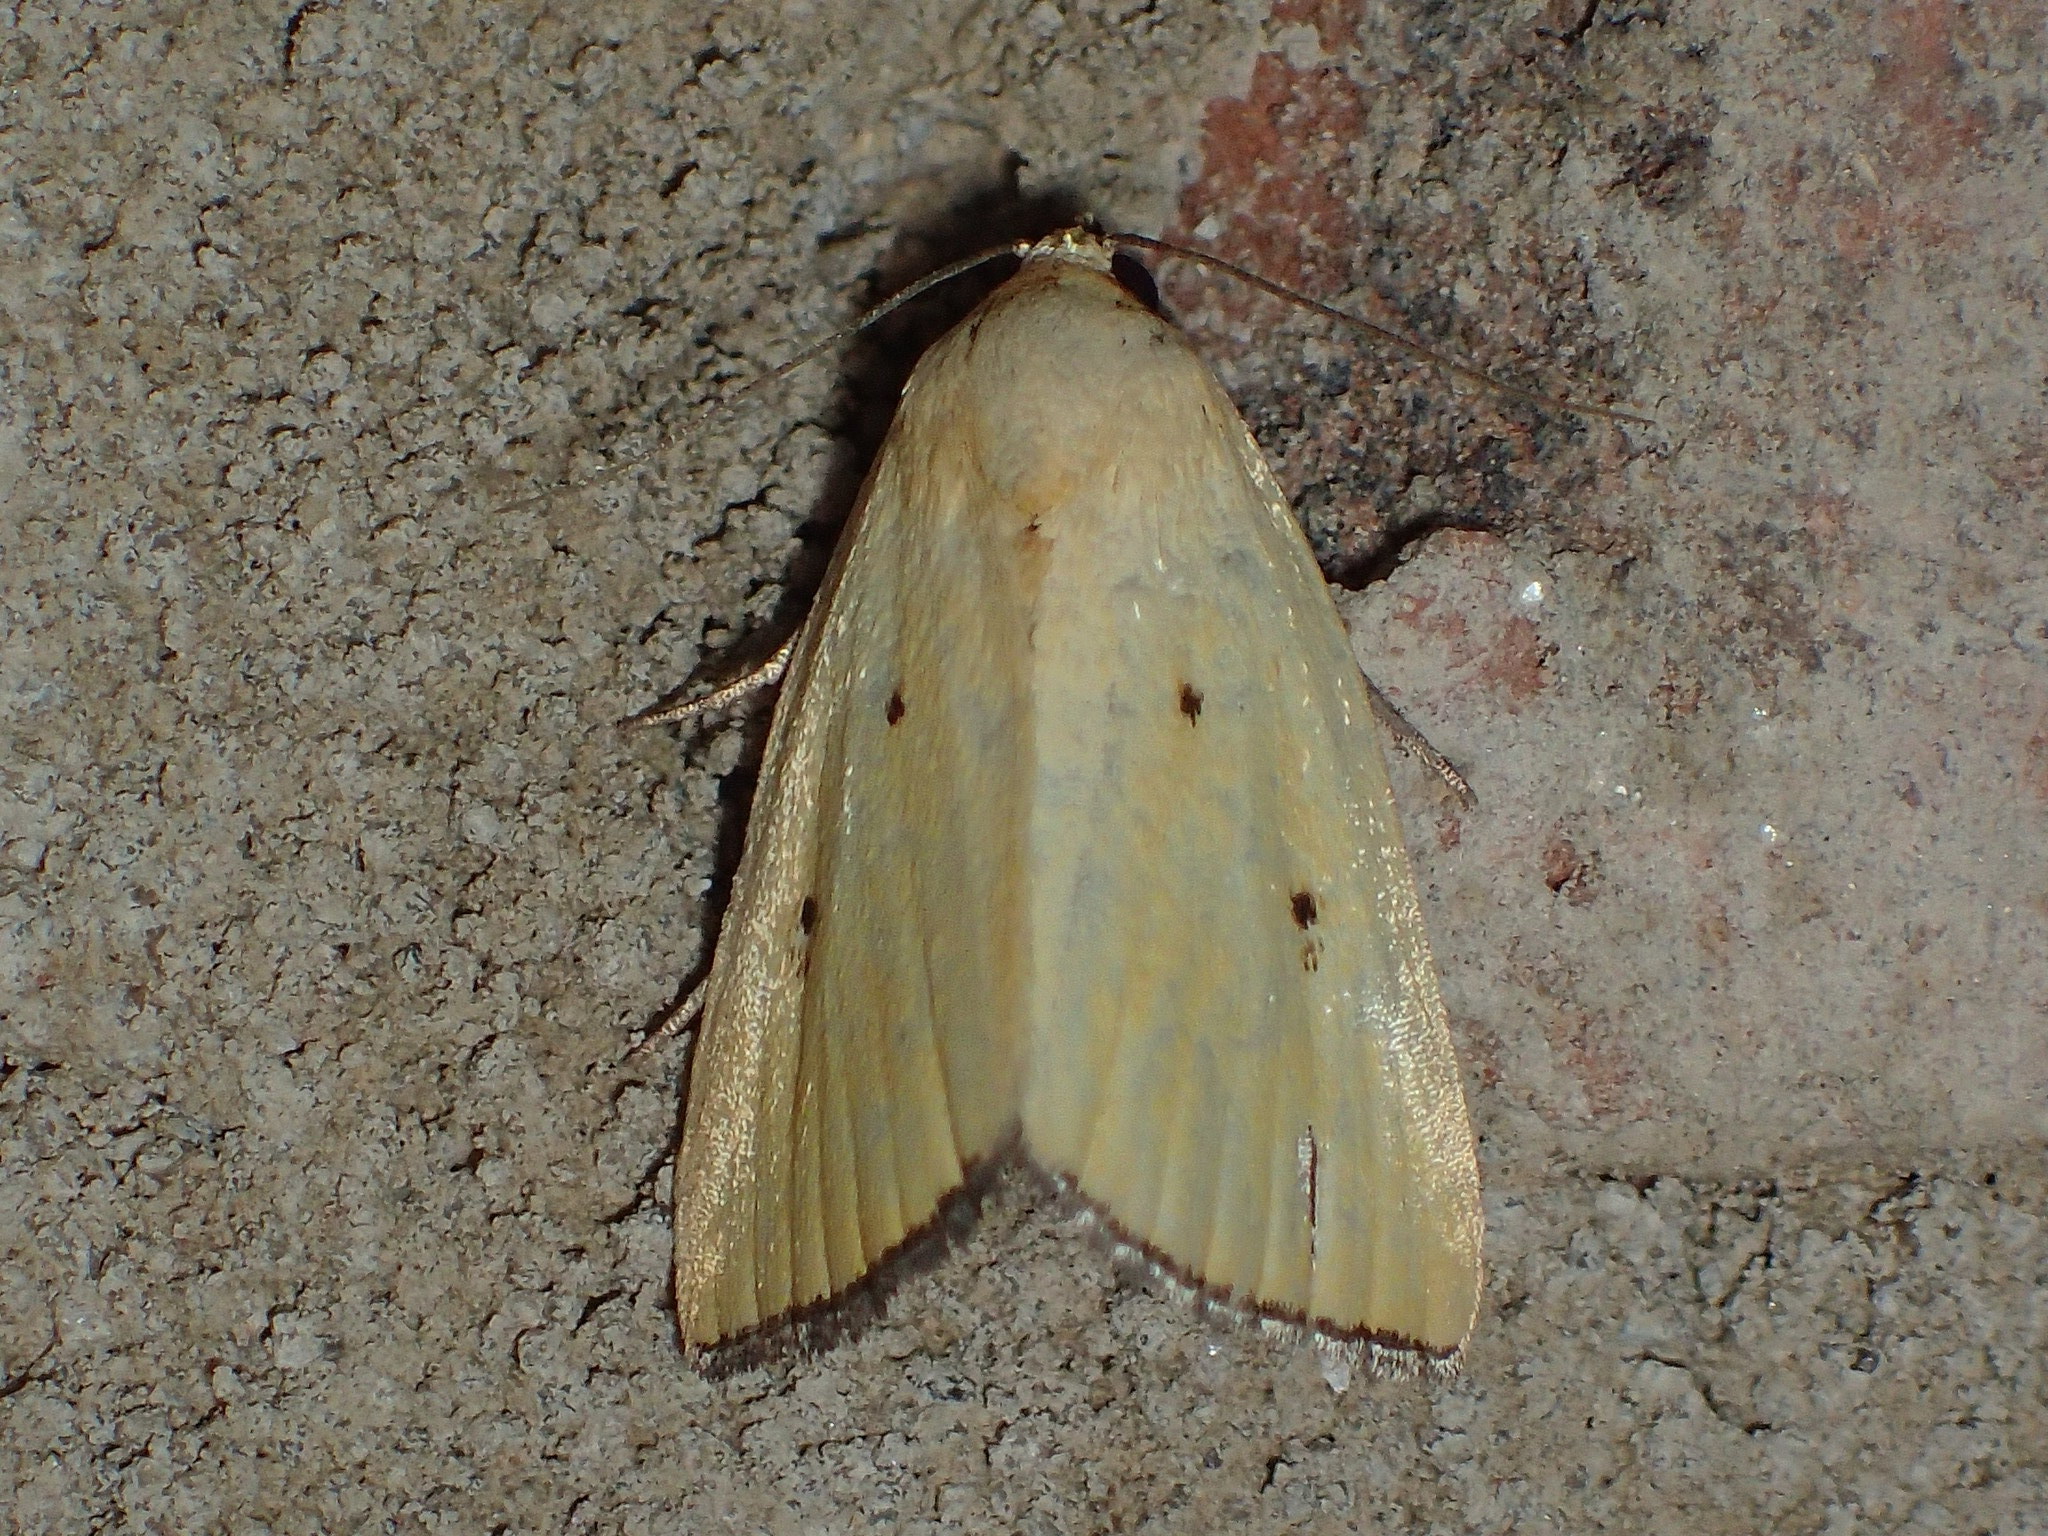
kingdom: Animalia
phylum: Arthropoda
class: Insecta
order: Lepidoptera
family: Noctuidae
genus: Marimatha
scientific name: Marimatha nigrofimbria
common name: Black-bordered lemon moth
